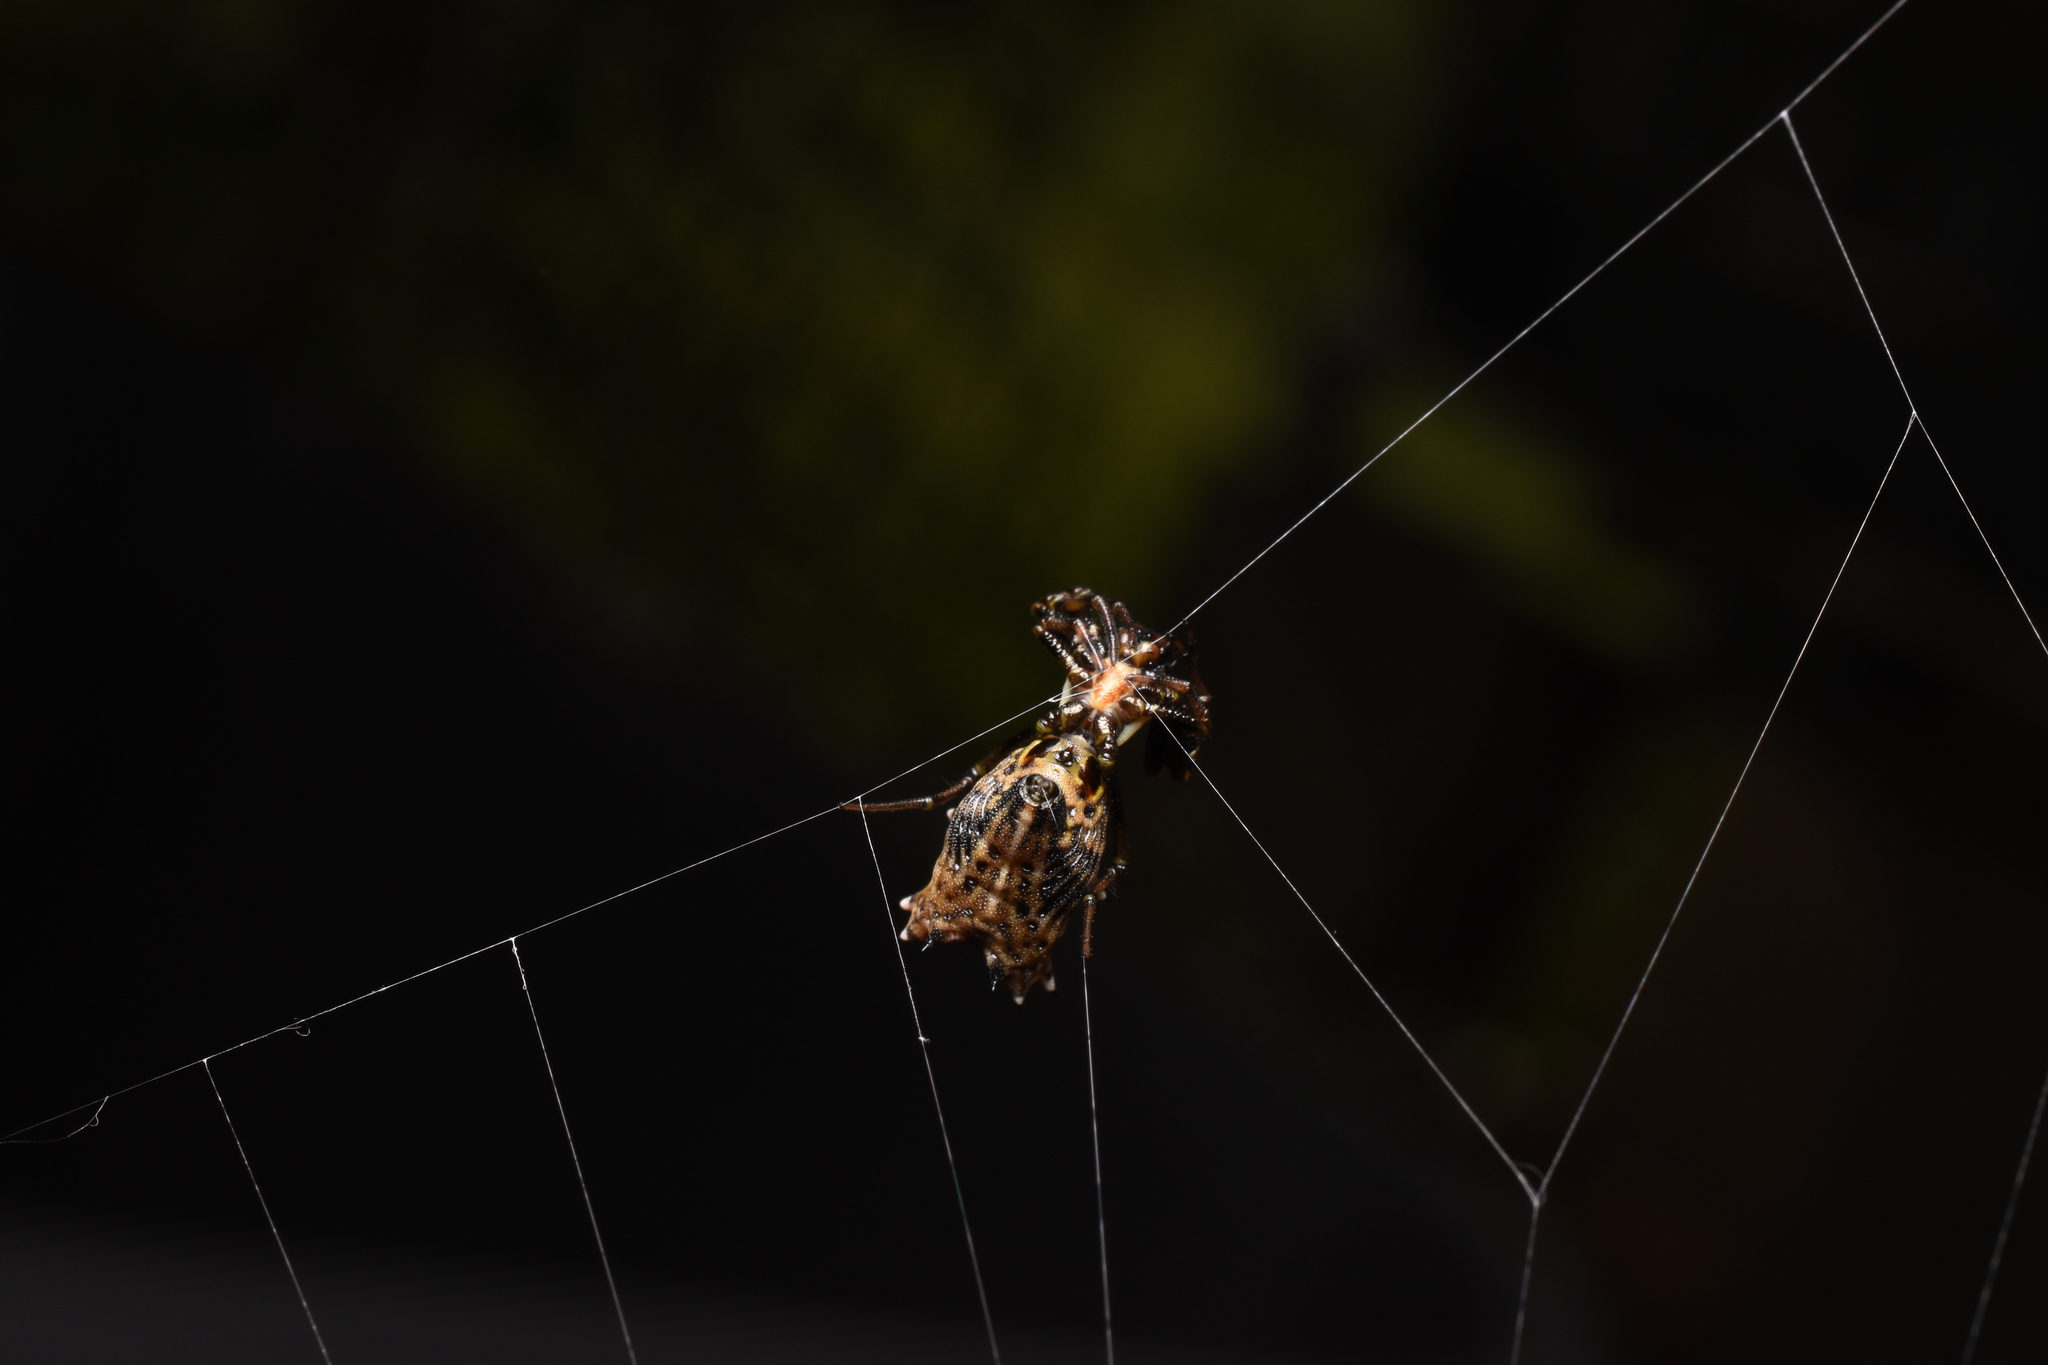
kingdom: Animalia
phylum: Arthropoda
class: Arachnida
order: Araneae
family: Araneidae
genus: Micrathena
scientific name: Micrathena gracilis
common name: Orb weavers
